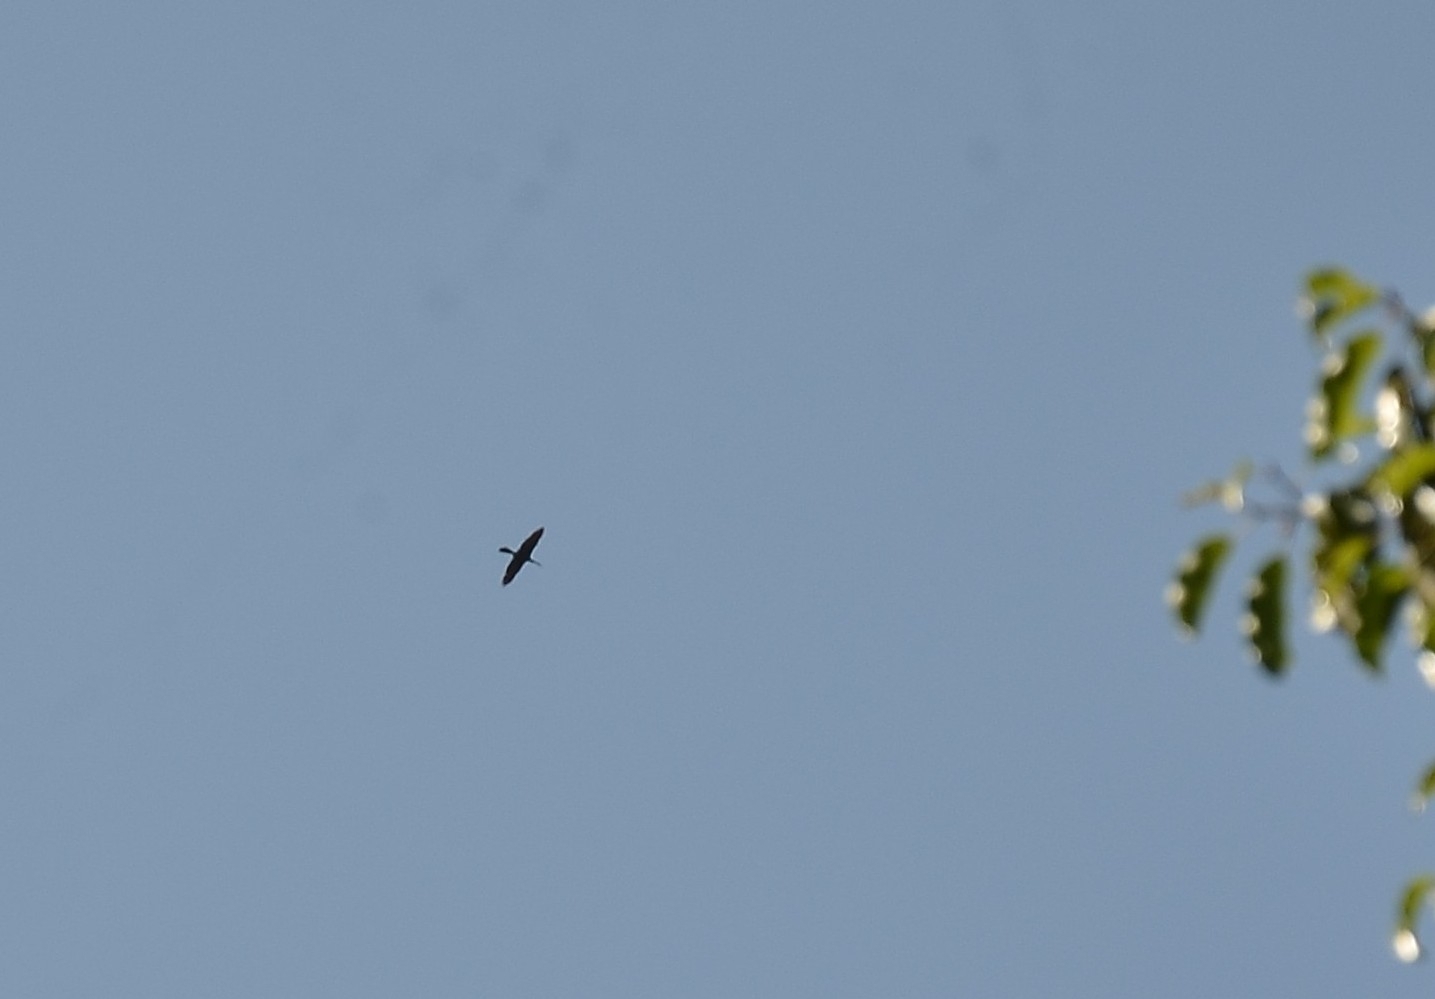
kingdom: Animalia
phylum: Chordata
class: Aves
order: Suliformes
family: Anhingidae
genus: Anhinga
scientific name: Anhinga melanogaster
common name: Oriental darter
